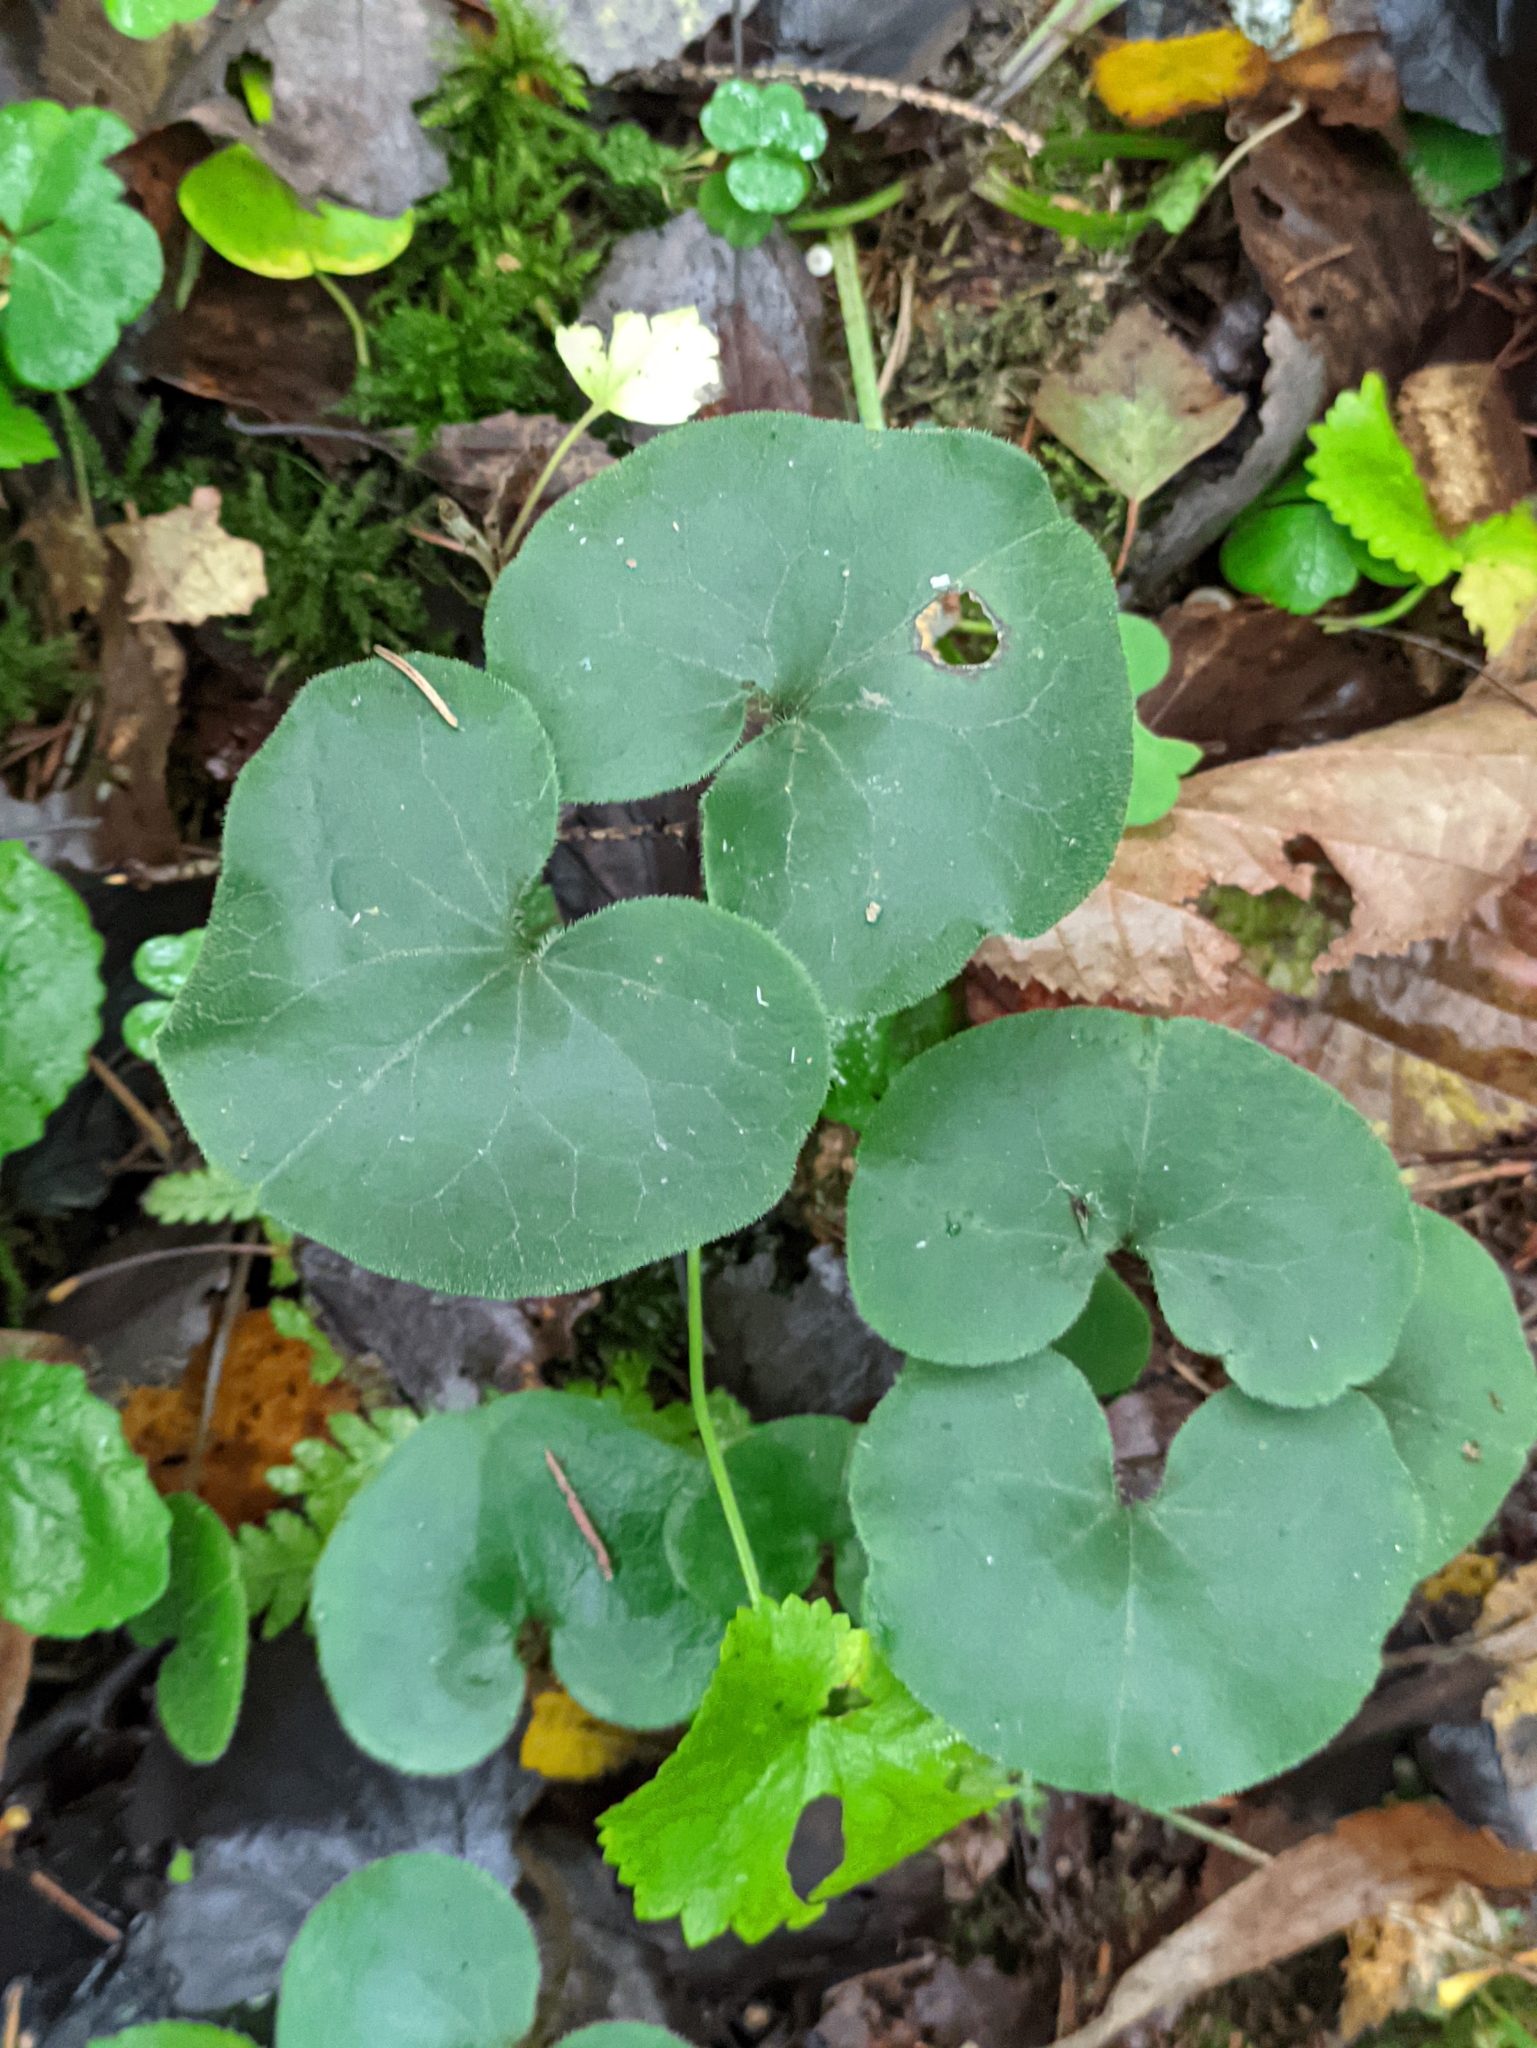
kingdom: Plantae
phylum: Tracheophyta
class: Magnoliopsida
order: Piperales
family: Aristolochiaceae
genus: Asarum
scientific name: Asarum europaeum
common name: Asarabacca
